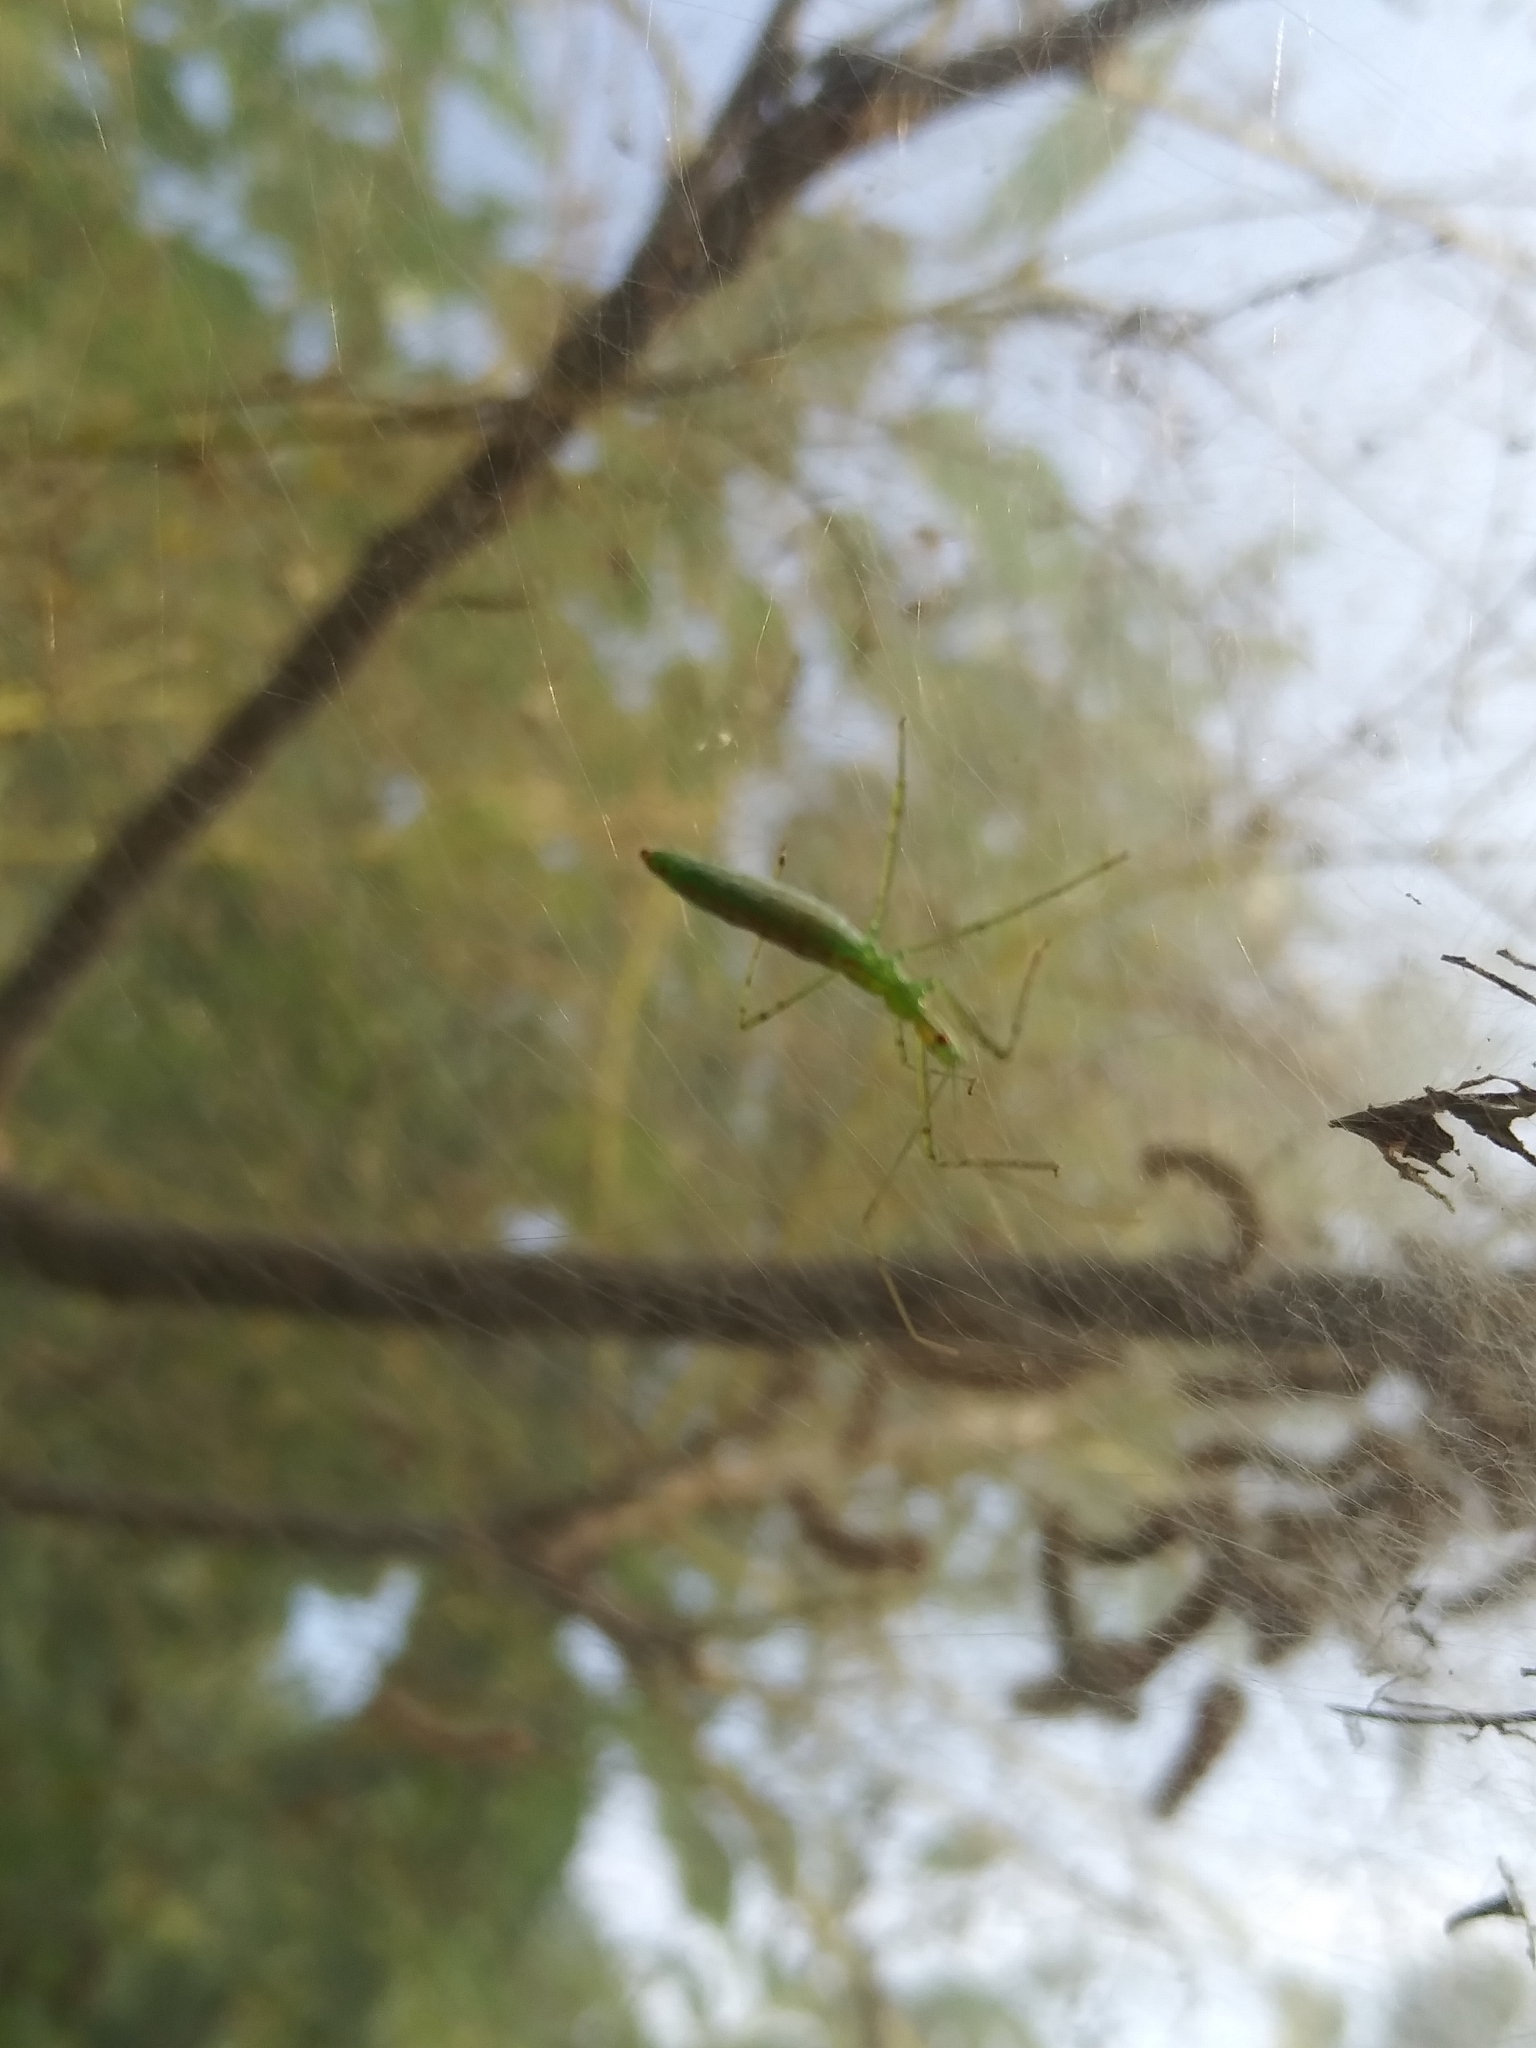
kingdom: Animalia
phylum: Arthropoda
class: Insecta
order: Hemiptera
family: Reduviidae
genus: Zelus
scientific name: Zelus luridus
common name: Pale green assassin bug
